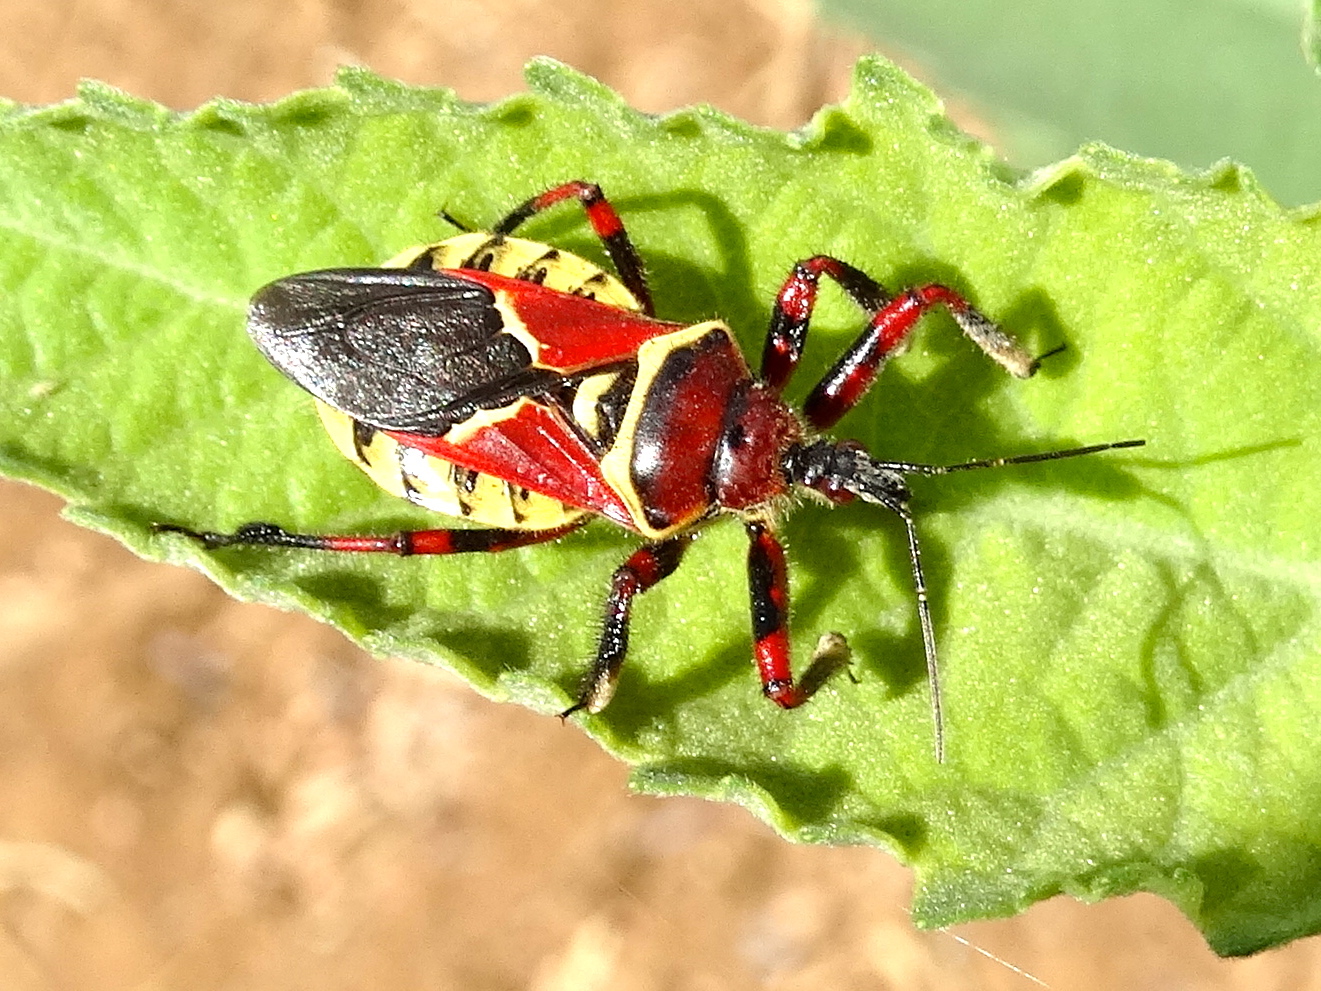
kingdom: Animalia
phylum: Arthropoda
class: Insecta
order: Hemiptera
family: Reduviidae
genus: Apiomerus
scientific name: Apiomerus flaviventris
